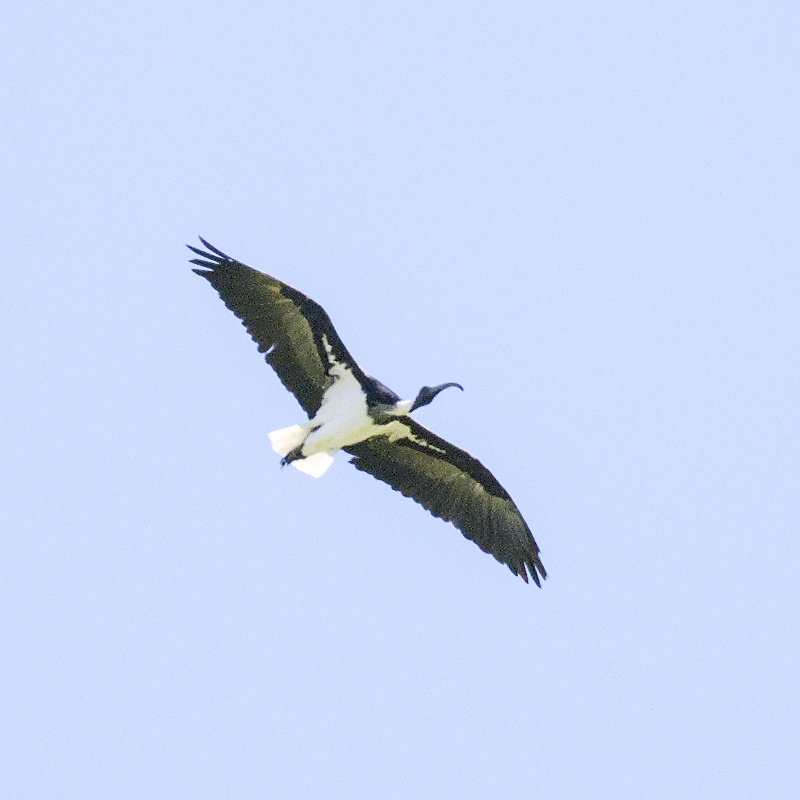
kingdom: Animalia
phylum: Chordata
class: Aves
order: Pelecaniformes
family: Threskiornithidae
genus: Threskiornis
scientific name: Threskiornis spinicollis
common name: Straw-necked ibis
